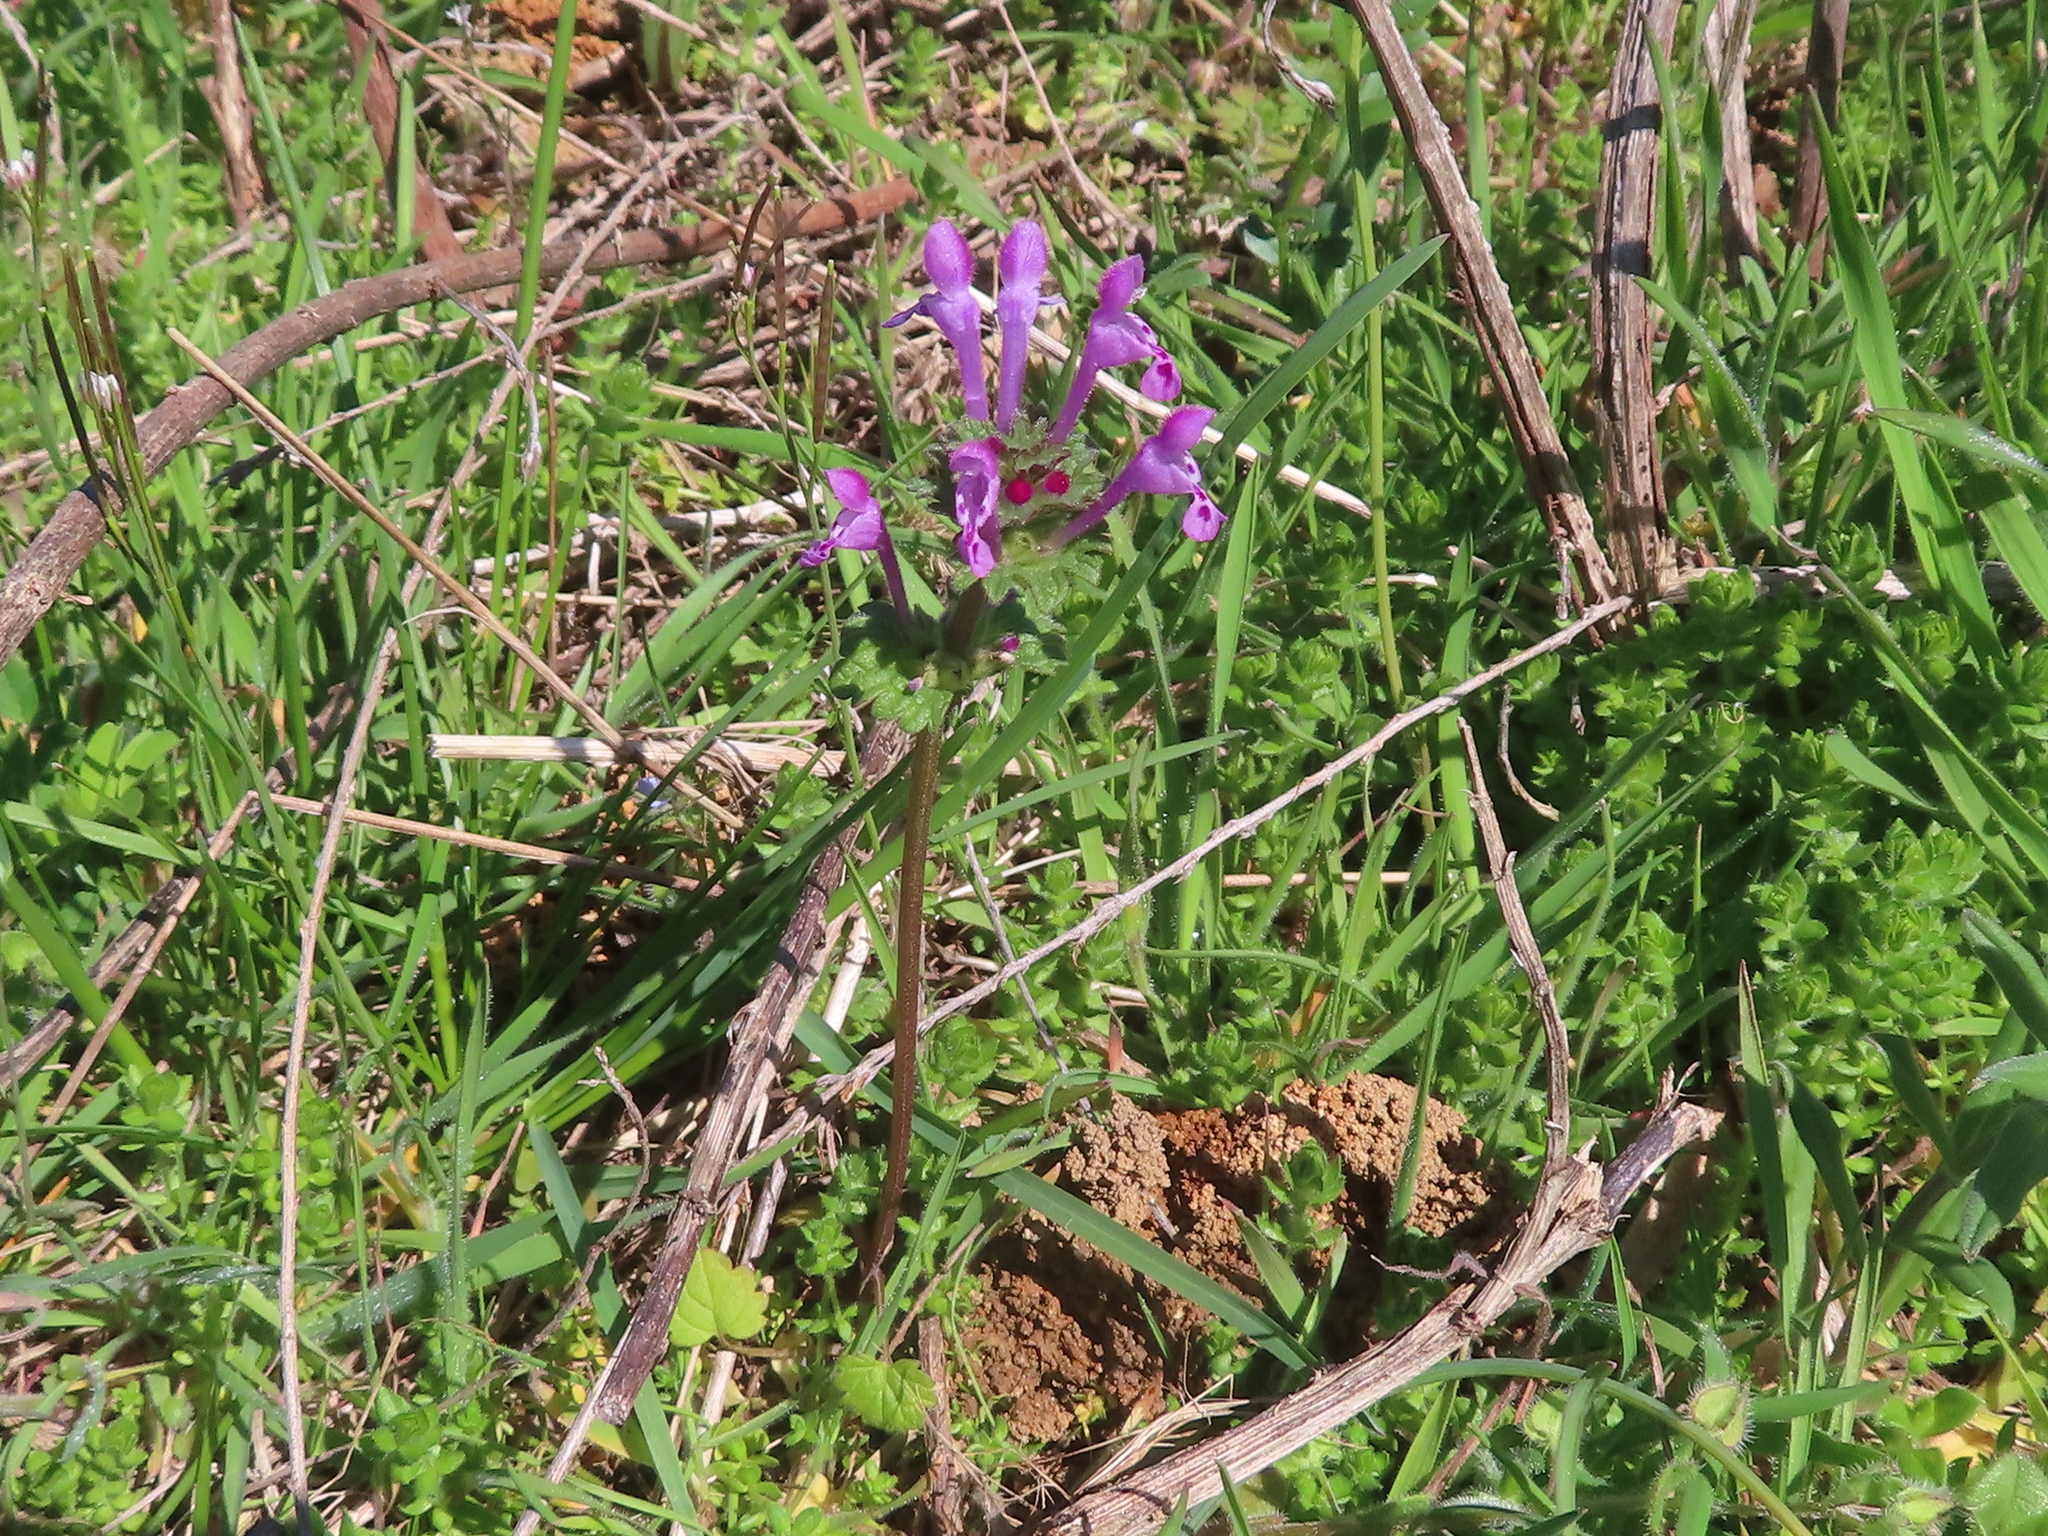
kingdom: Plantae
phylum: Tracheophyta
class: Magnoliopsida
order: Lamiales
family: Lamiaceae
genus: Lamium
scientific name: Lamium amplexicaule
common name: Henbit dead-nettle
